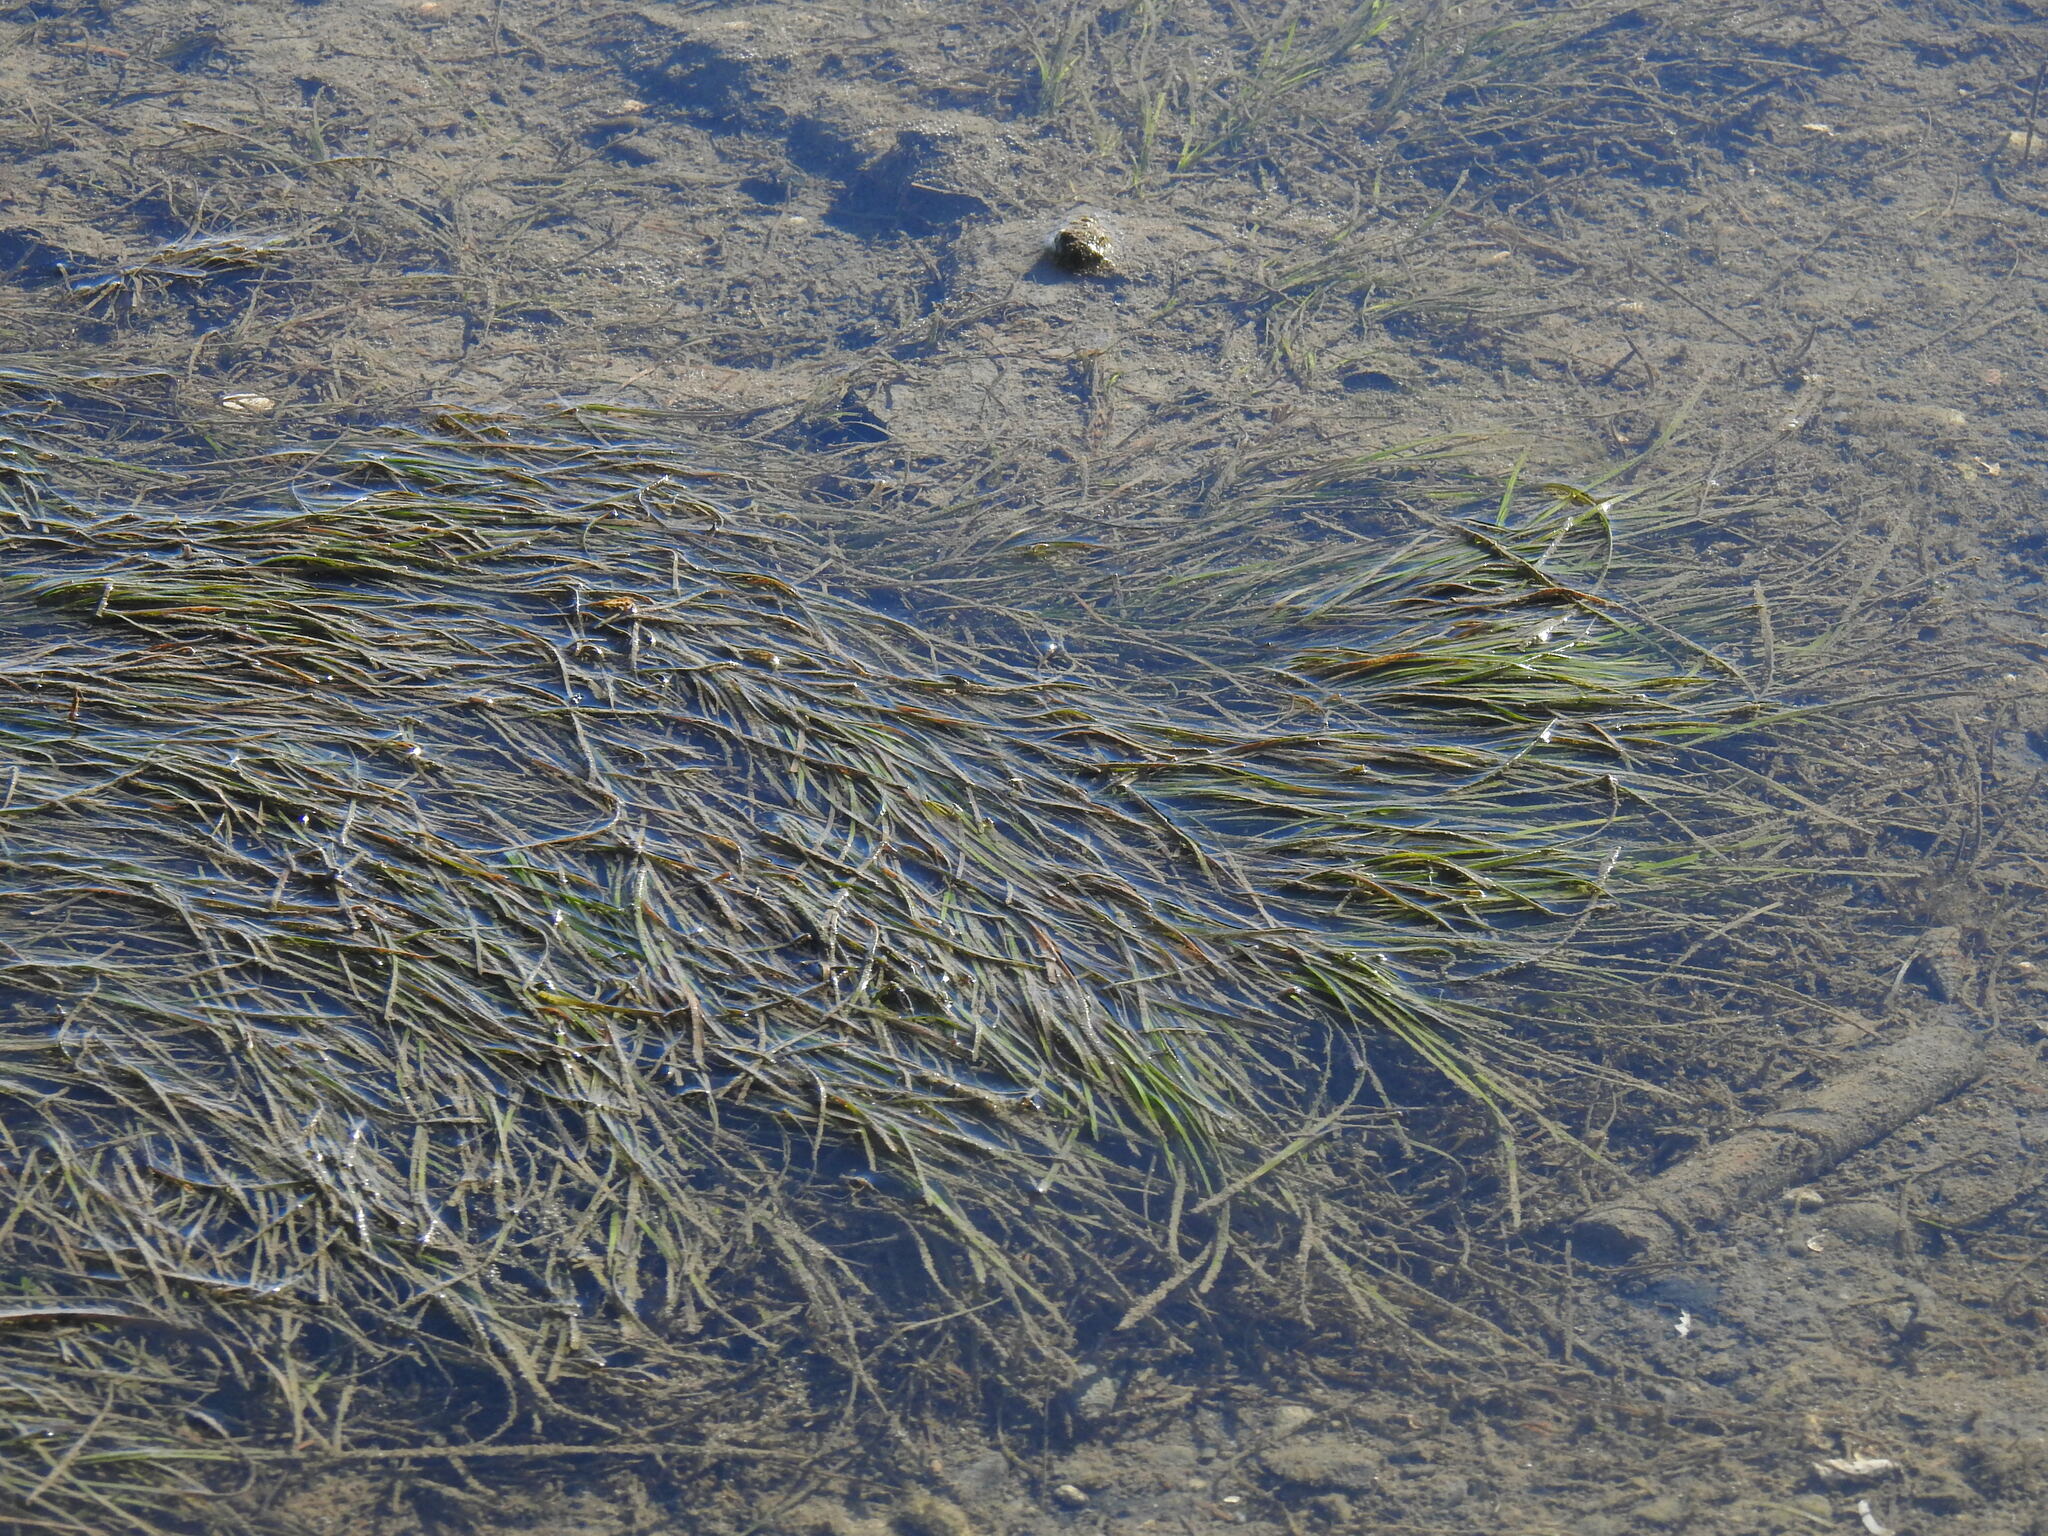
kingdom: Plantae
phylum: Tracheophyta
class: Liliopsida
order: Alismatales
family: Zosteraceae
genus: Zostera
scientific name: Zostera noltii
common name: Dwarf eelgrass
